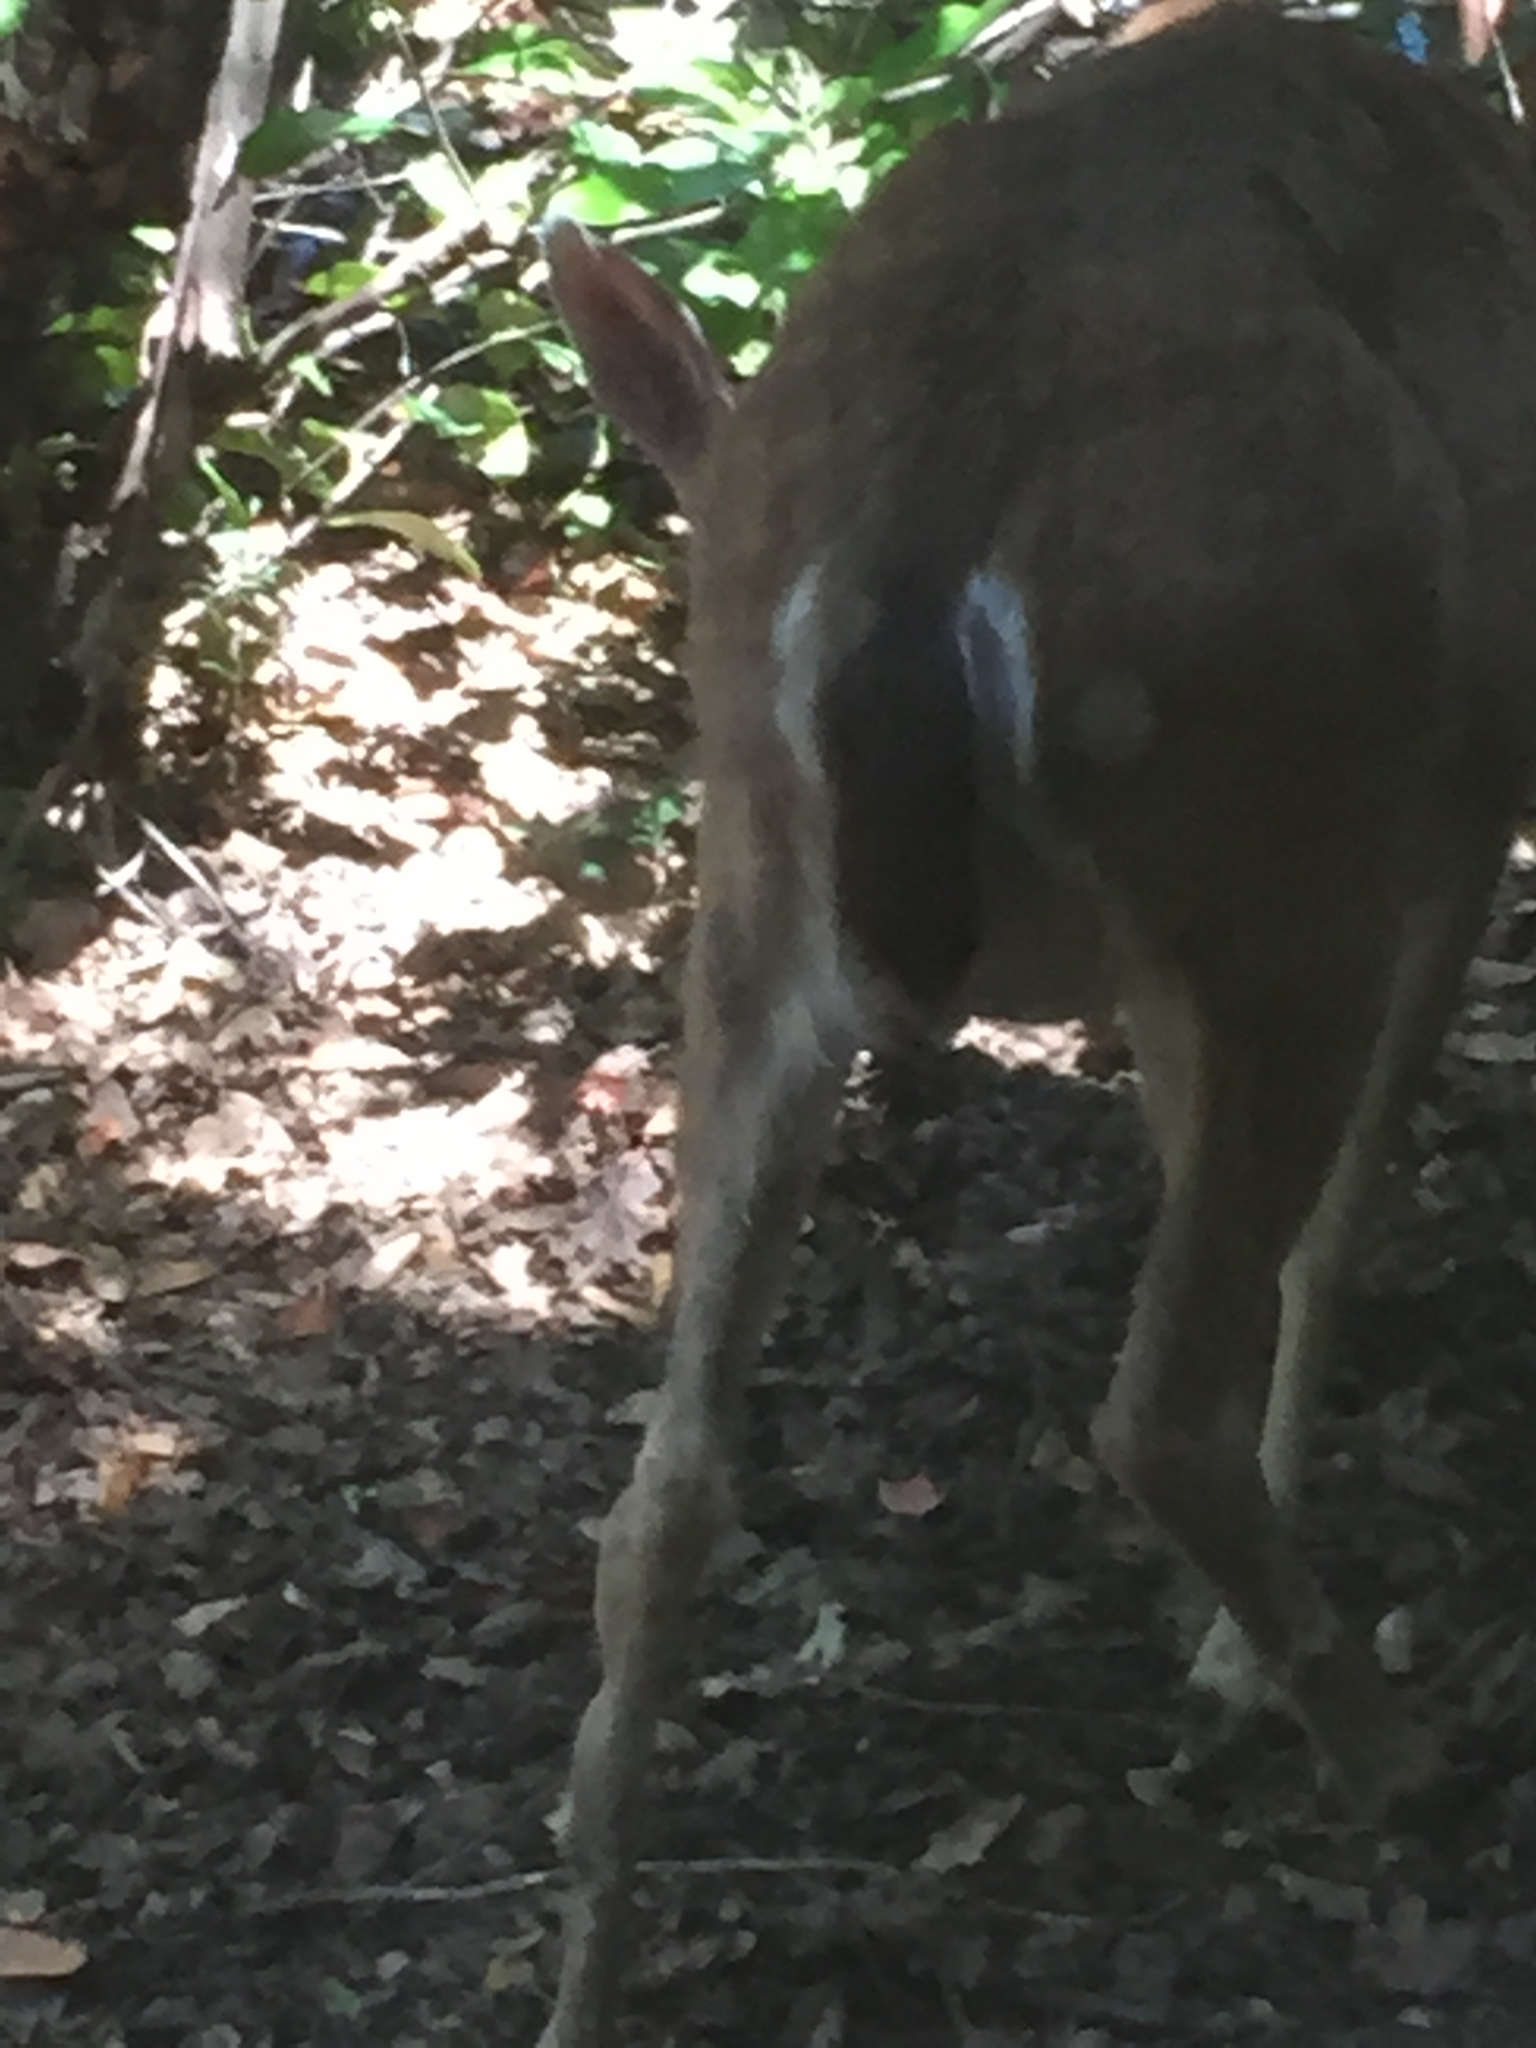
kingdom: Animalia
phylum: Chordata
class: Mammalia
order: Artiodactyla
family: Cervidae
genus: Odocoileus
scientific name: Odocoileus hemionus
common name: Mule deer
